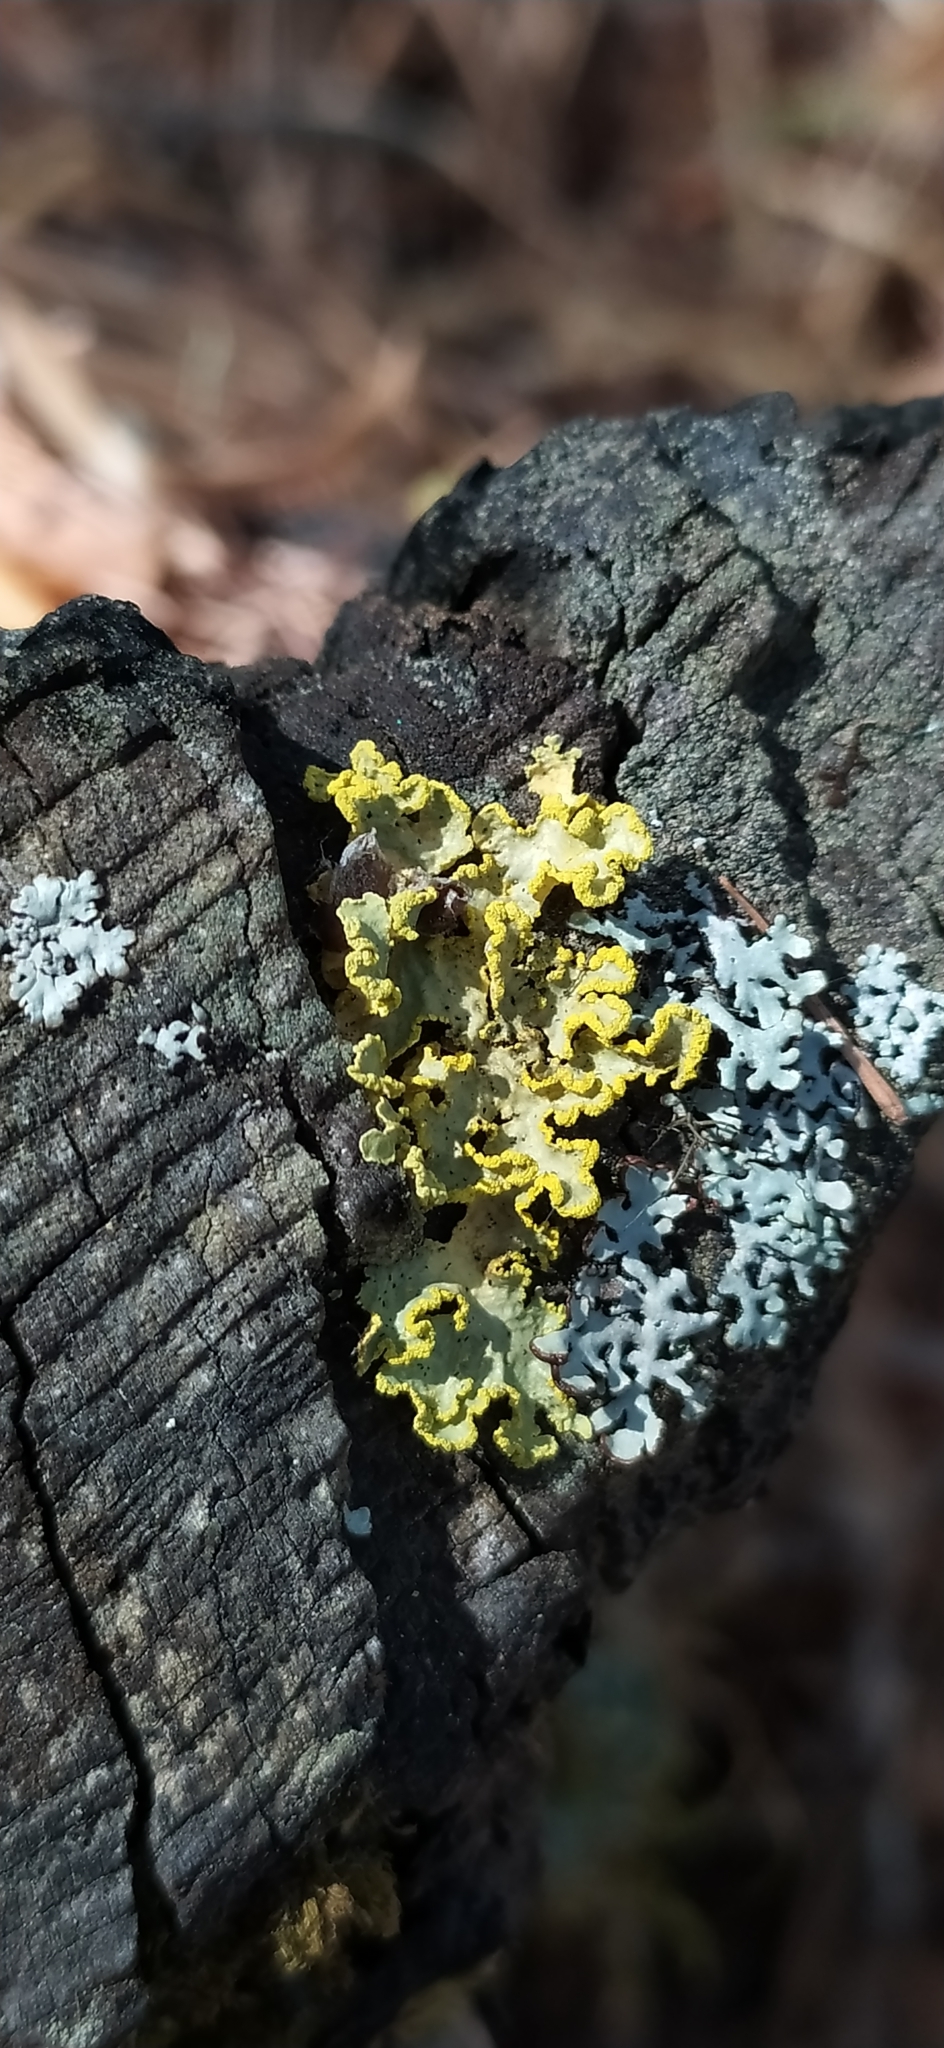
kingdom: Fungi
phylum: Ascomycota
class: Lecanoromycetes
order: Lecanorales
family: Parmeliaceae
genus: Vulpicida
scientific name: Vulpicida pinastri
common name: Powdered sunshine lichen
